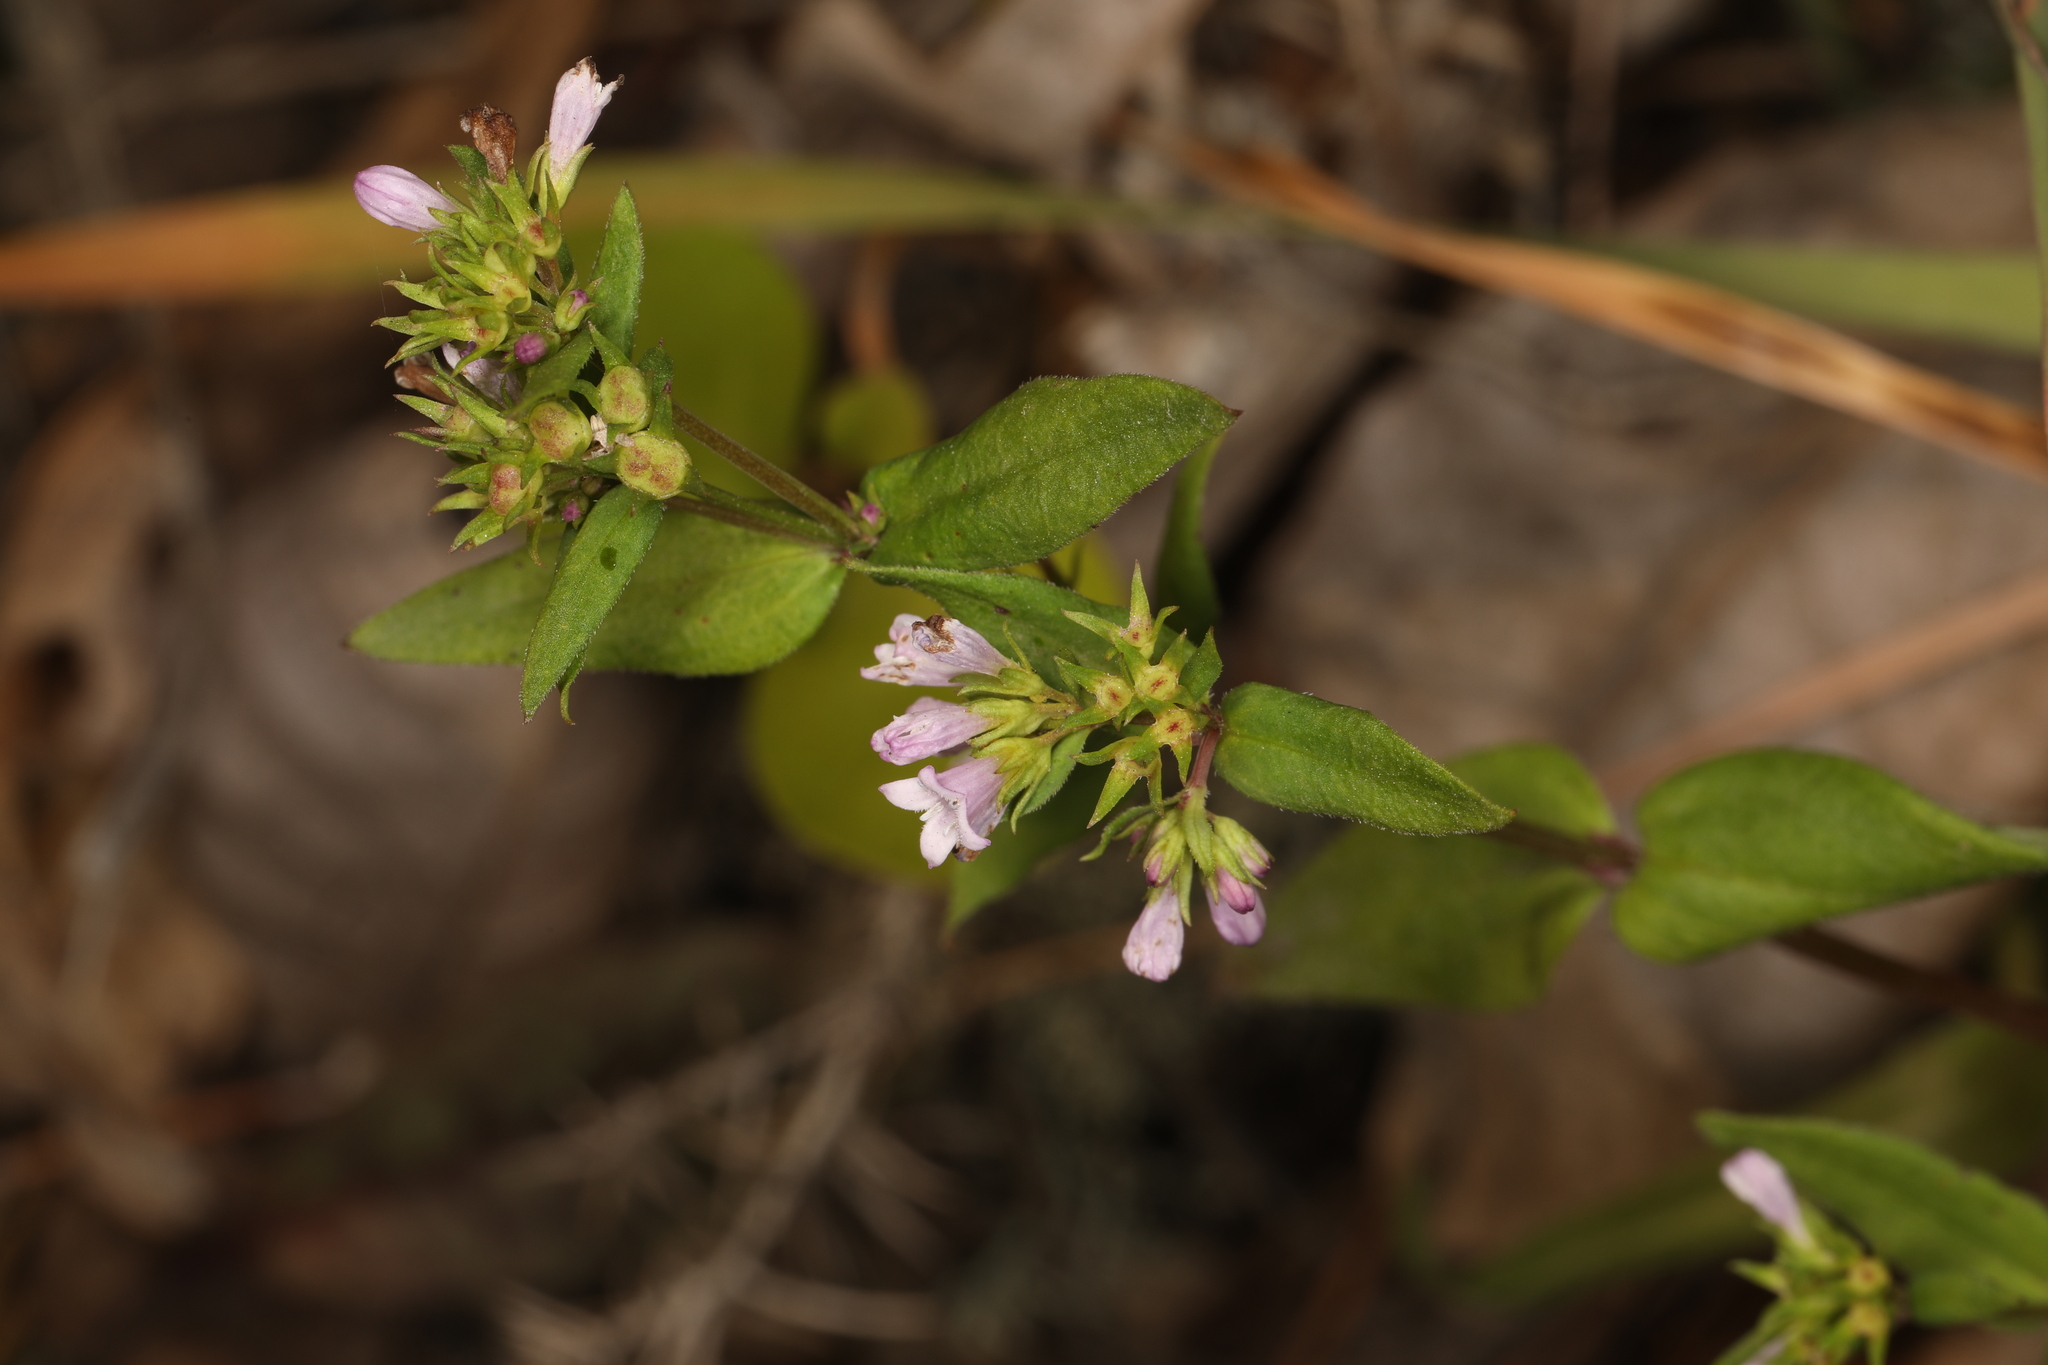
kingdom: Plantae
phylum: Tracheophyta
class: Magnoliopsida
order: Gentianales
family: Rubiaceae
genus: Houstonia
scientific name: Houstonia purpurea
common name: Summer bluet
